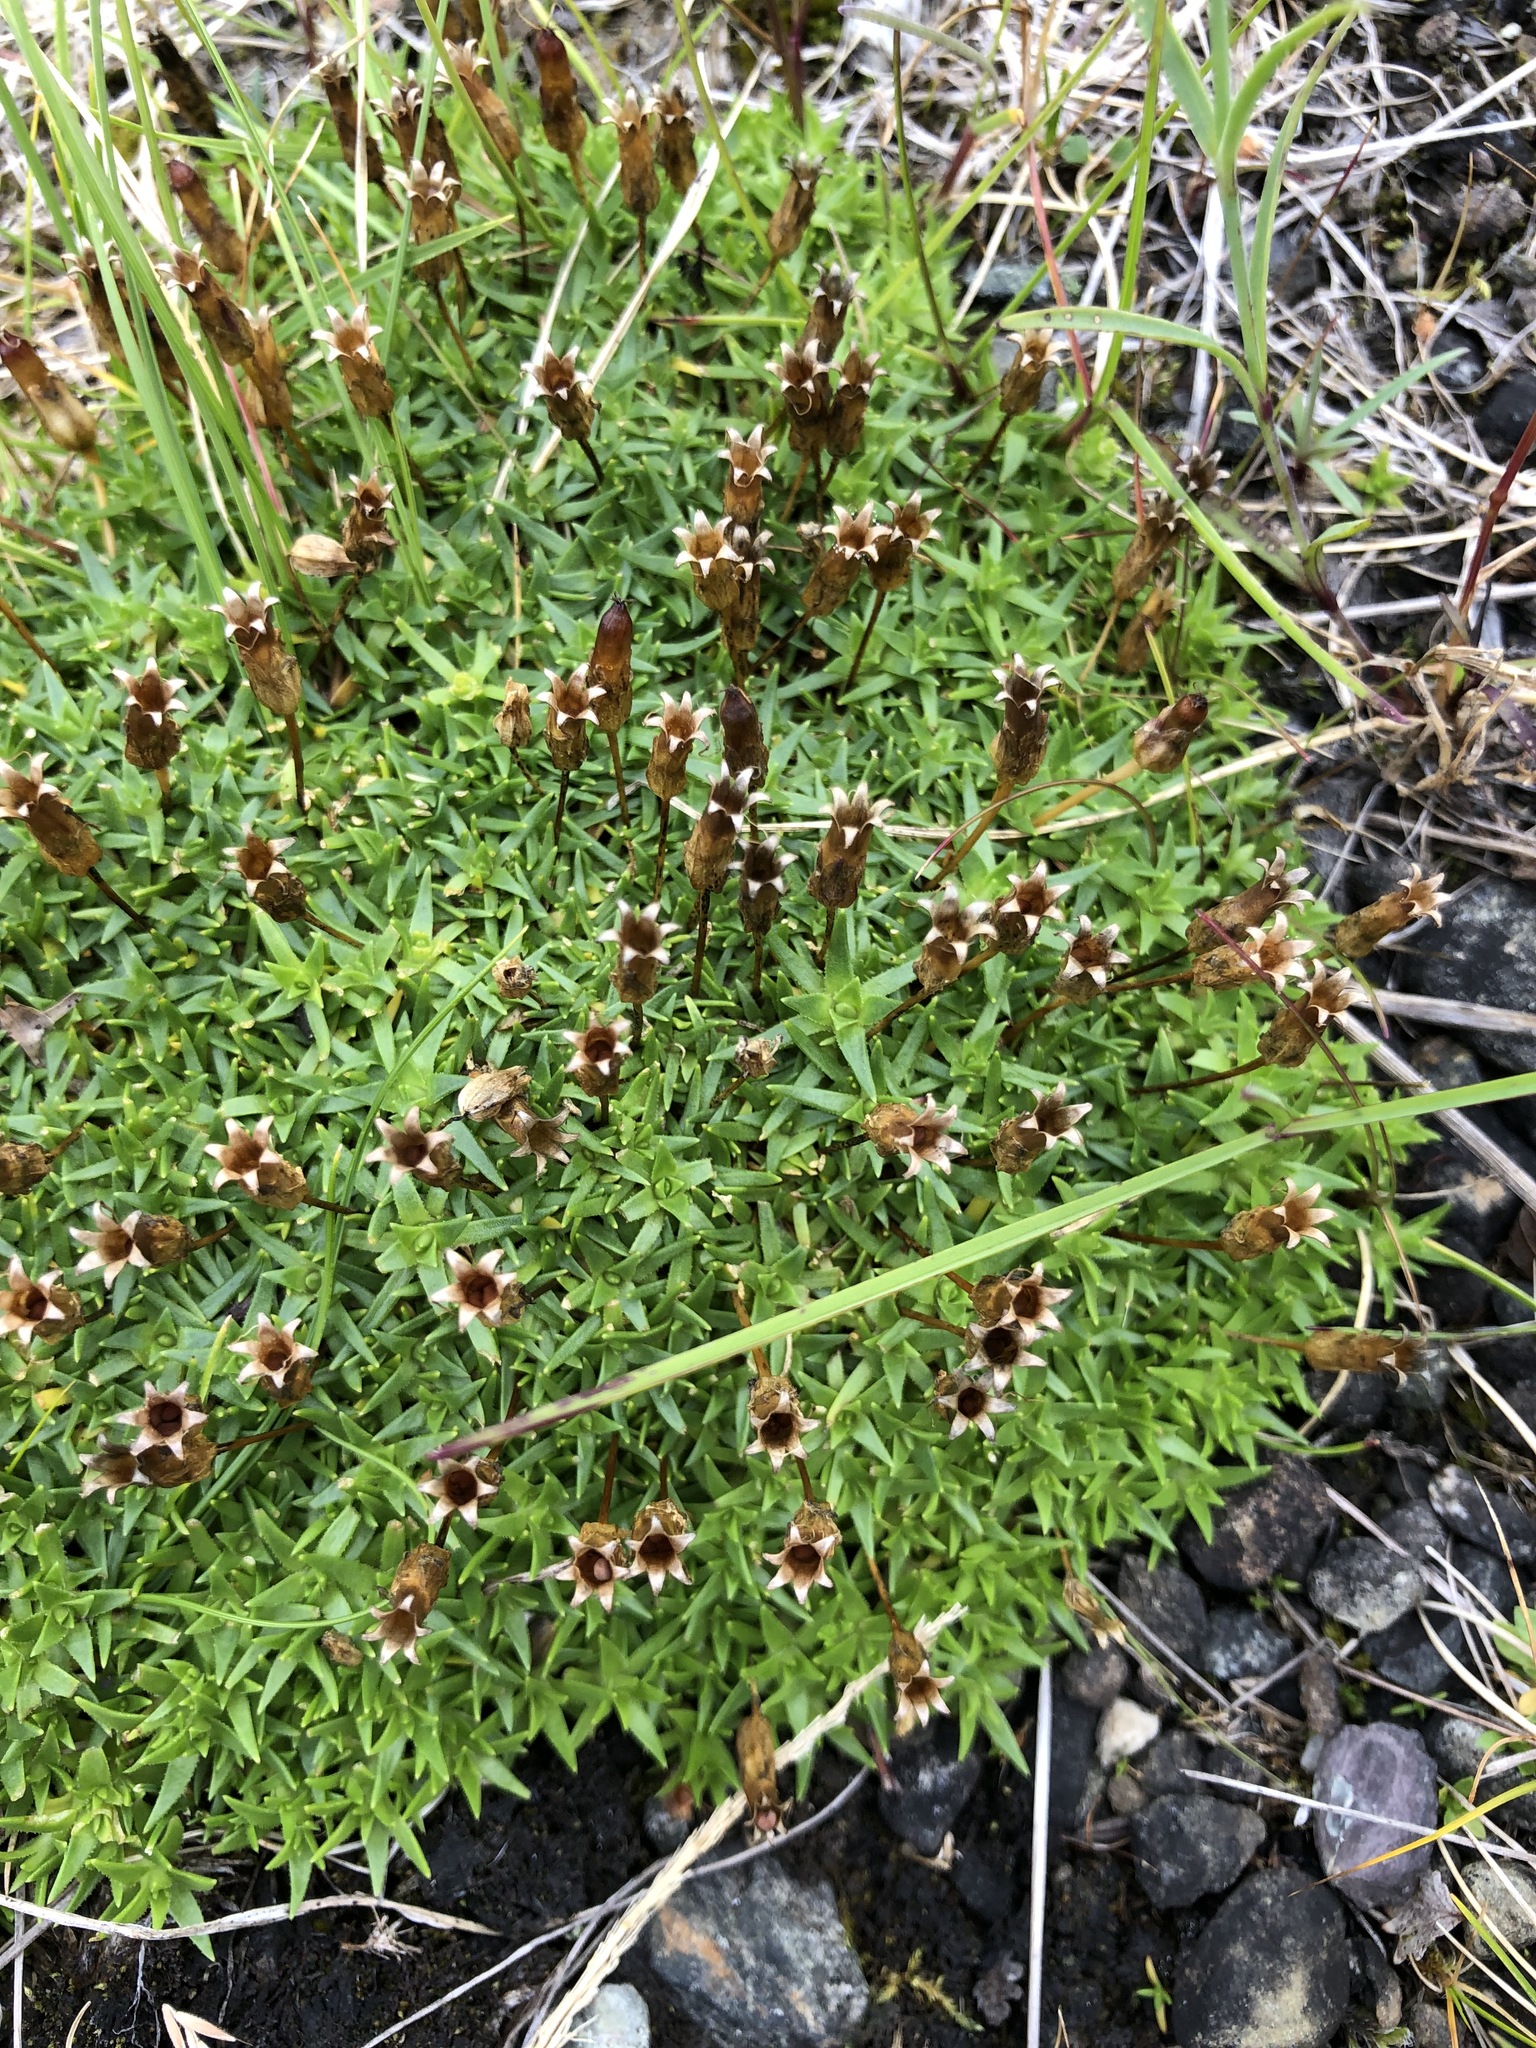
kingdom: Plantae
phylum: Tracheophyta
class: Magnoliopsida
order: Caryophyllales
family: Caryophyllaceae
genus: Silene
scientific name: Silene acaulis
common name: Moss campion
